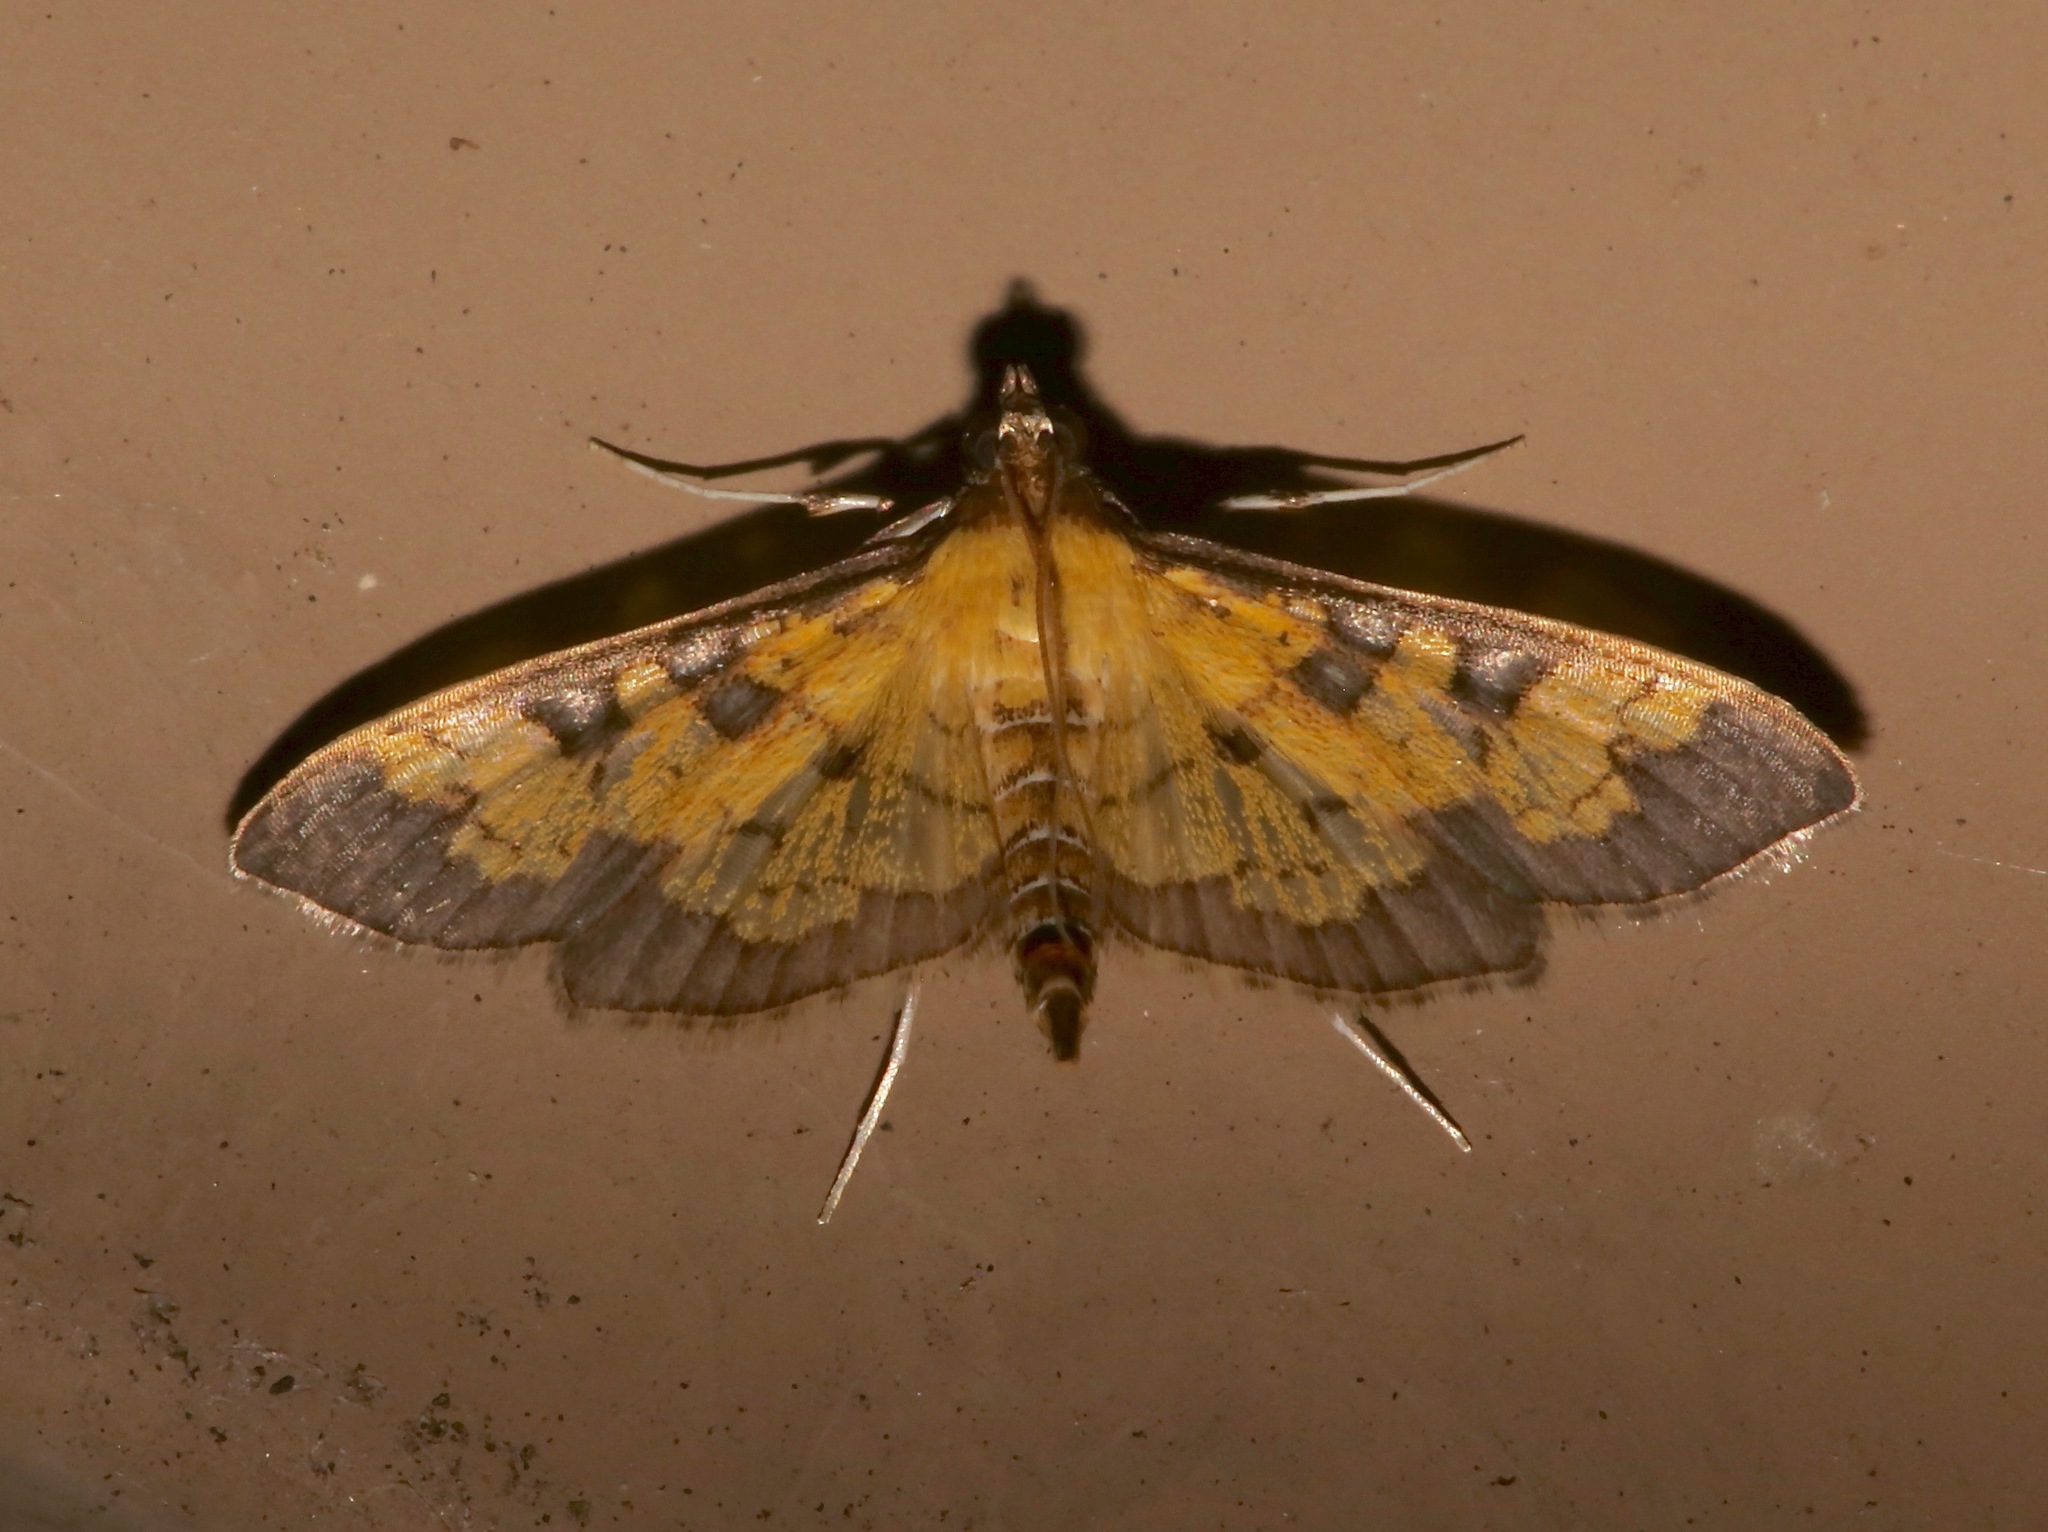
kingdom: Animalia
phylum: Arthropoda
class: Insecta
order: Lepidoptera
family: Crambidae
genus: Epipagis
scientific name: Epipagis adipaloides
